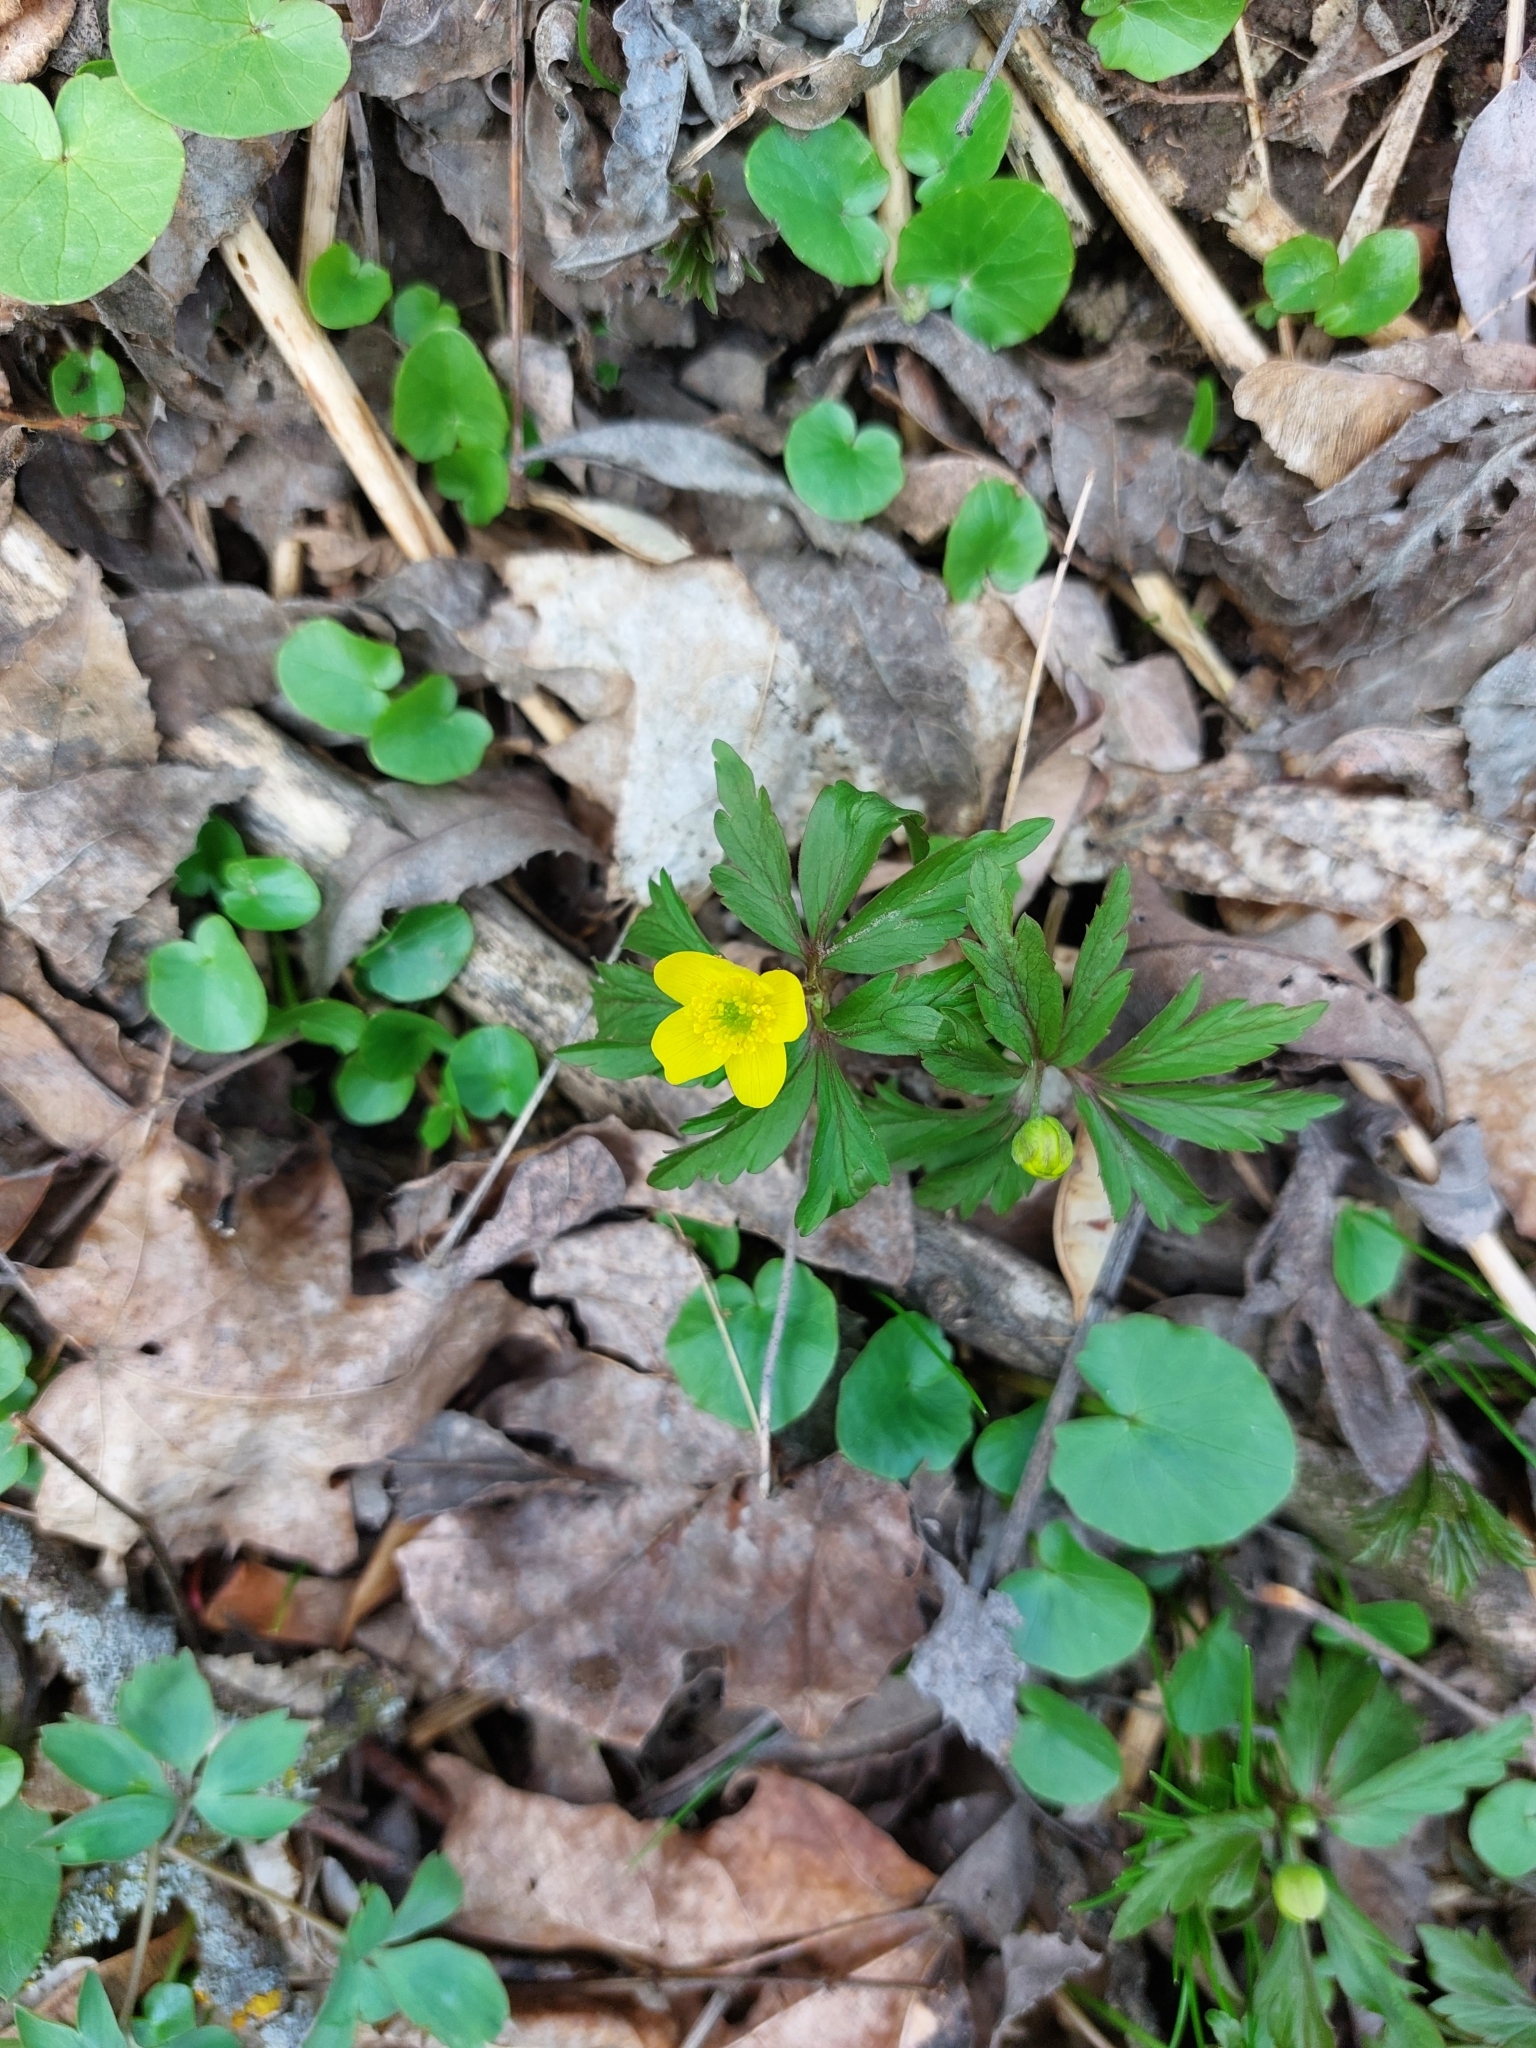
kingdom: Plantae
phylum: Tracheophyta
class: Magnoliopsida
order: Ranunculales
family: Ranunculaceae
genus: Anemone
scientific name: Anemone ranunculoides
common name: Yellow anemone
